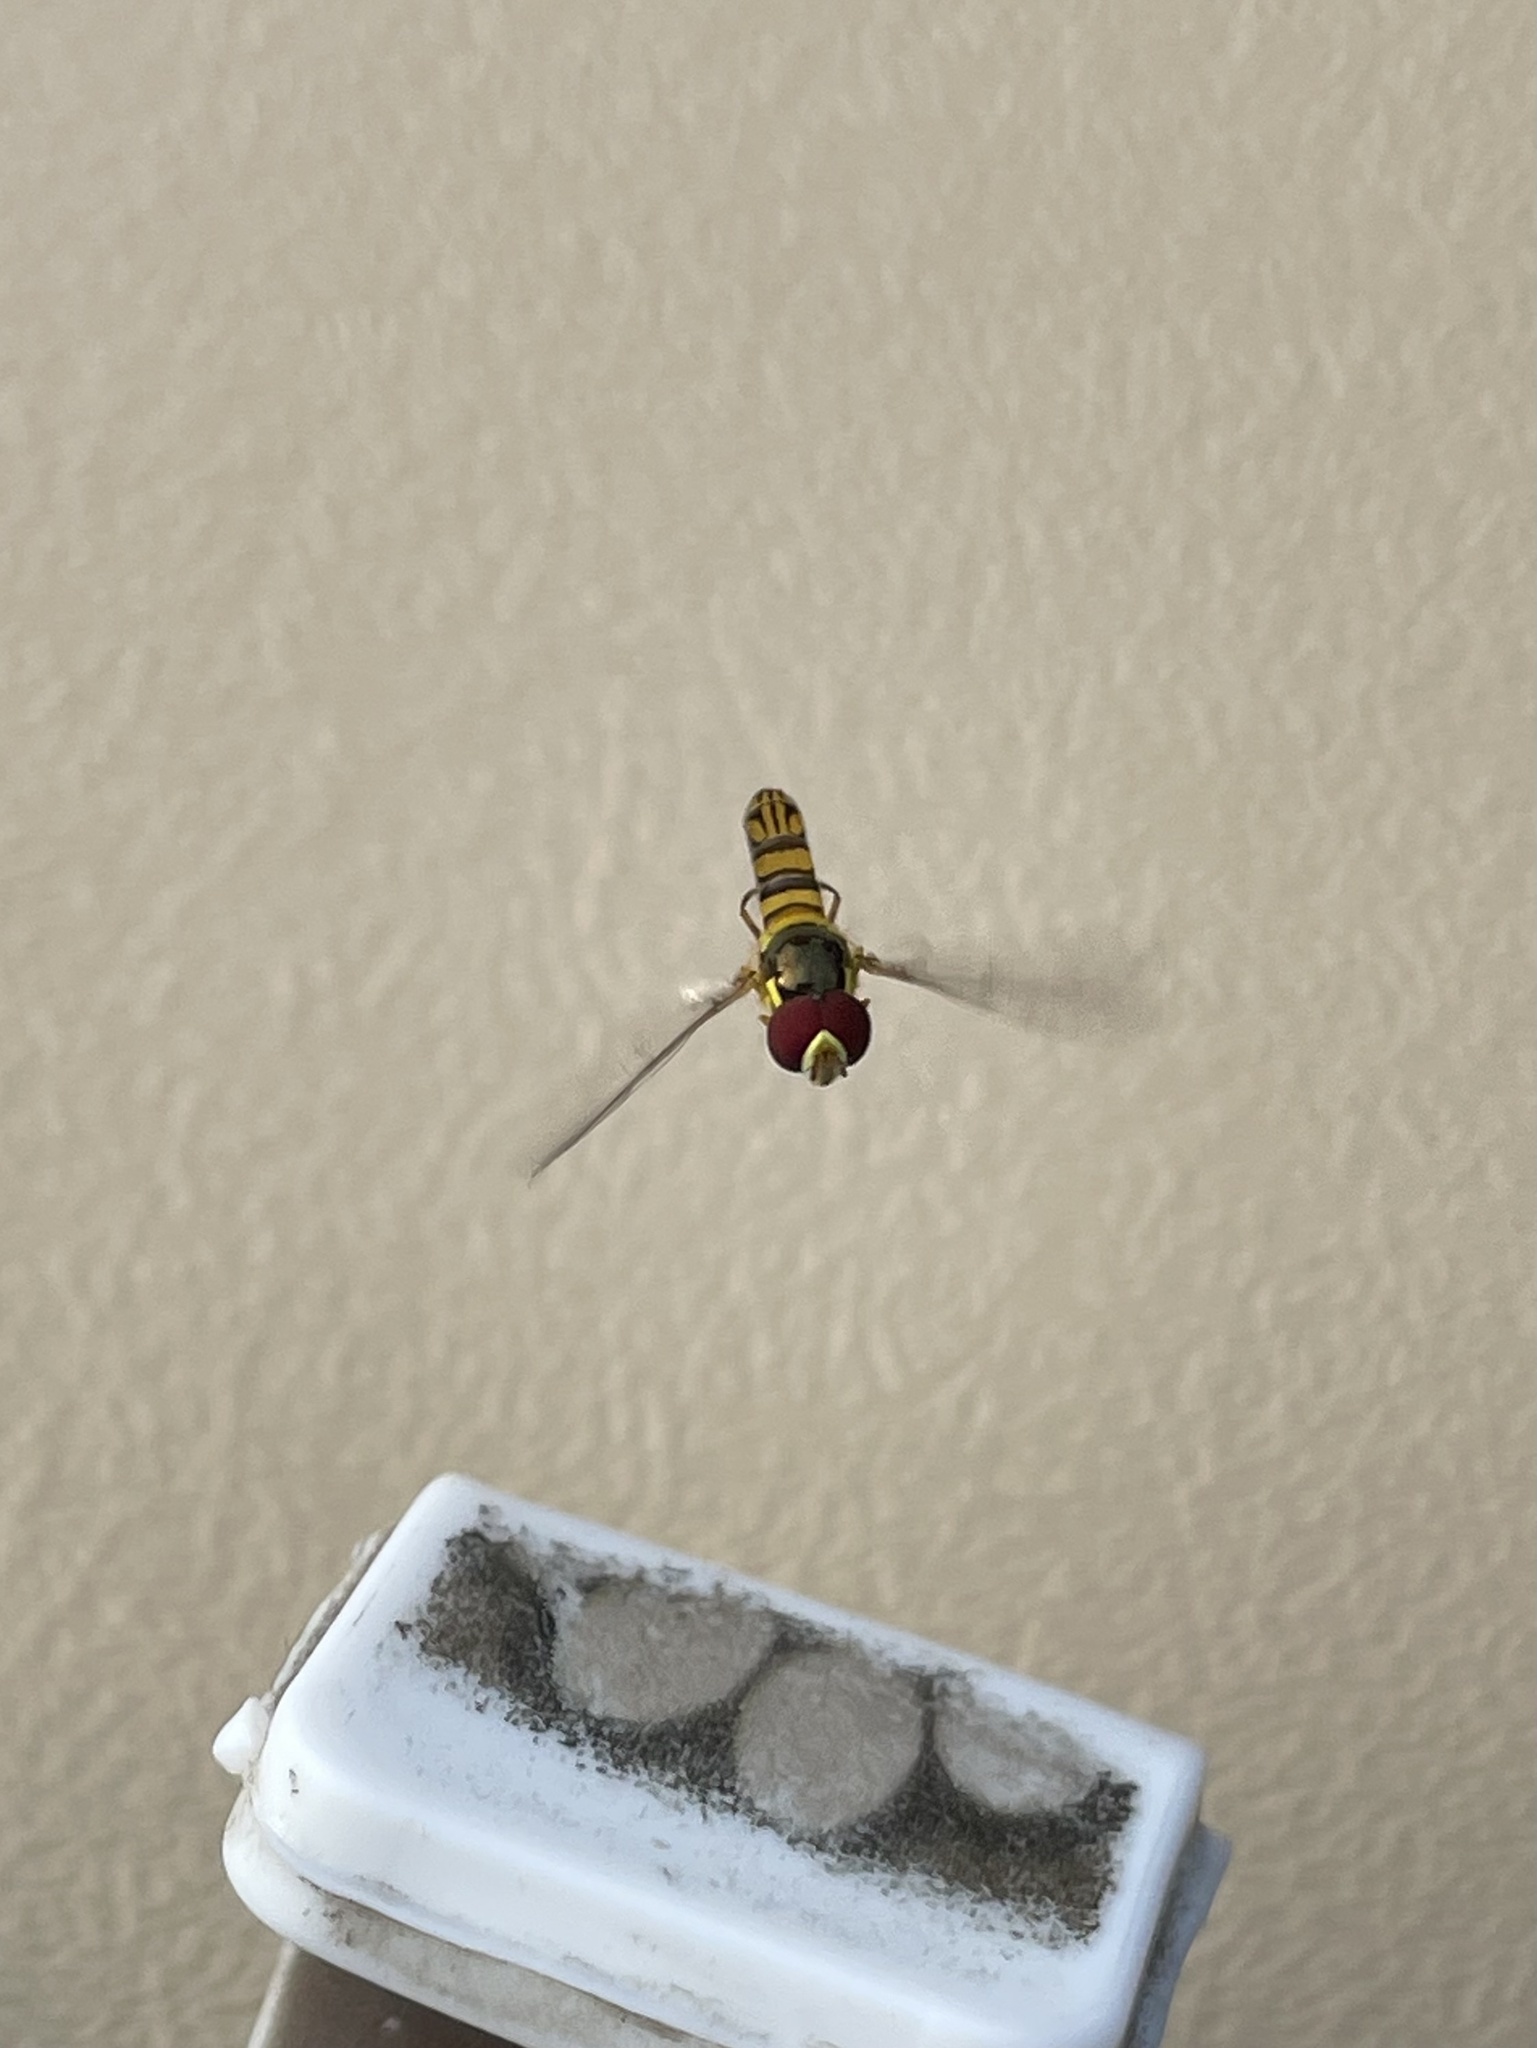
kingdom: Animalia
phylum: Arthropoda
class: Insecta
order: Diptera
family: Syrphidae
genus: Allograpta
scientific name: Allograpta obliqua
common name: Common oblique syrphid
